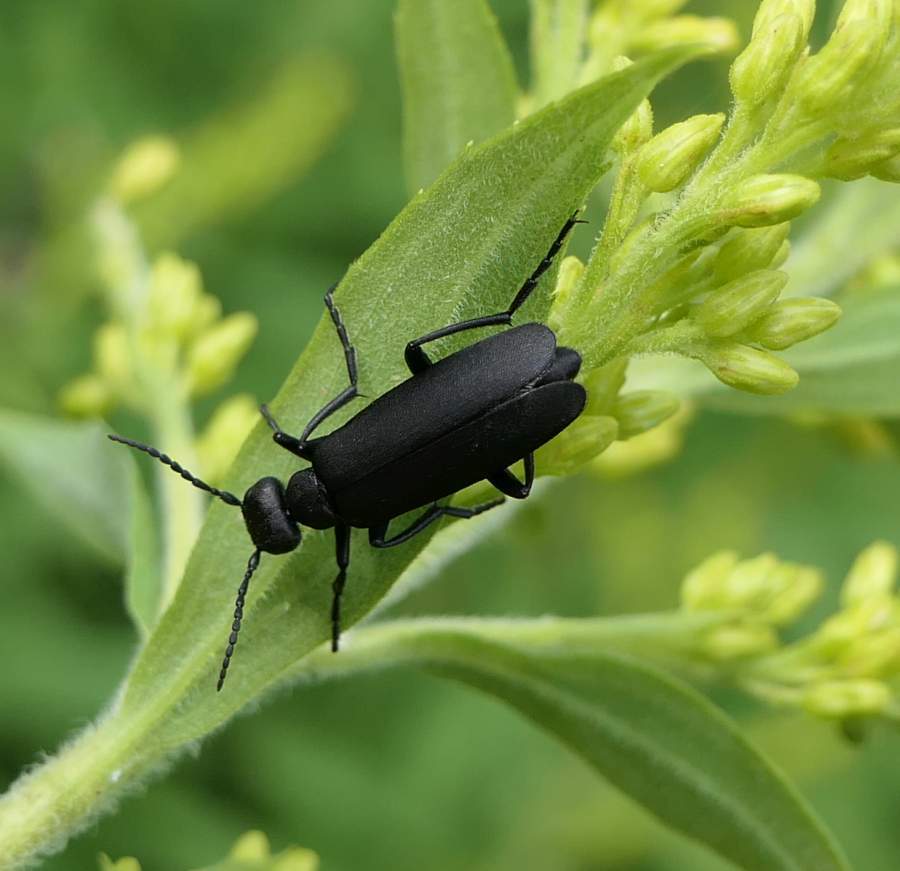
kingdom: Animalia
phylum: Arthropoda
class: Insecta
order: Coleoptera
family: Meloidae
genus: Epicauta
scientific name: Epicauta pensylvanica
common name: Black blister beetle
